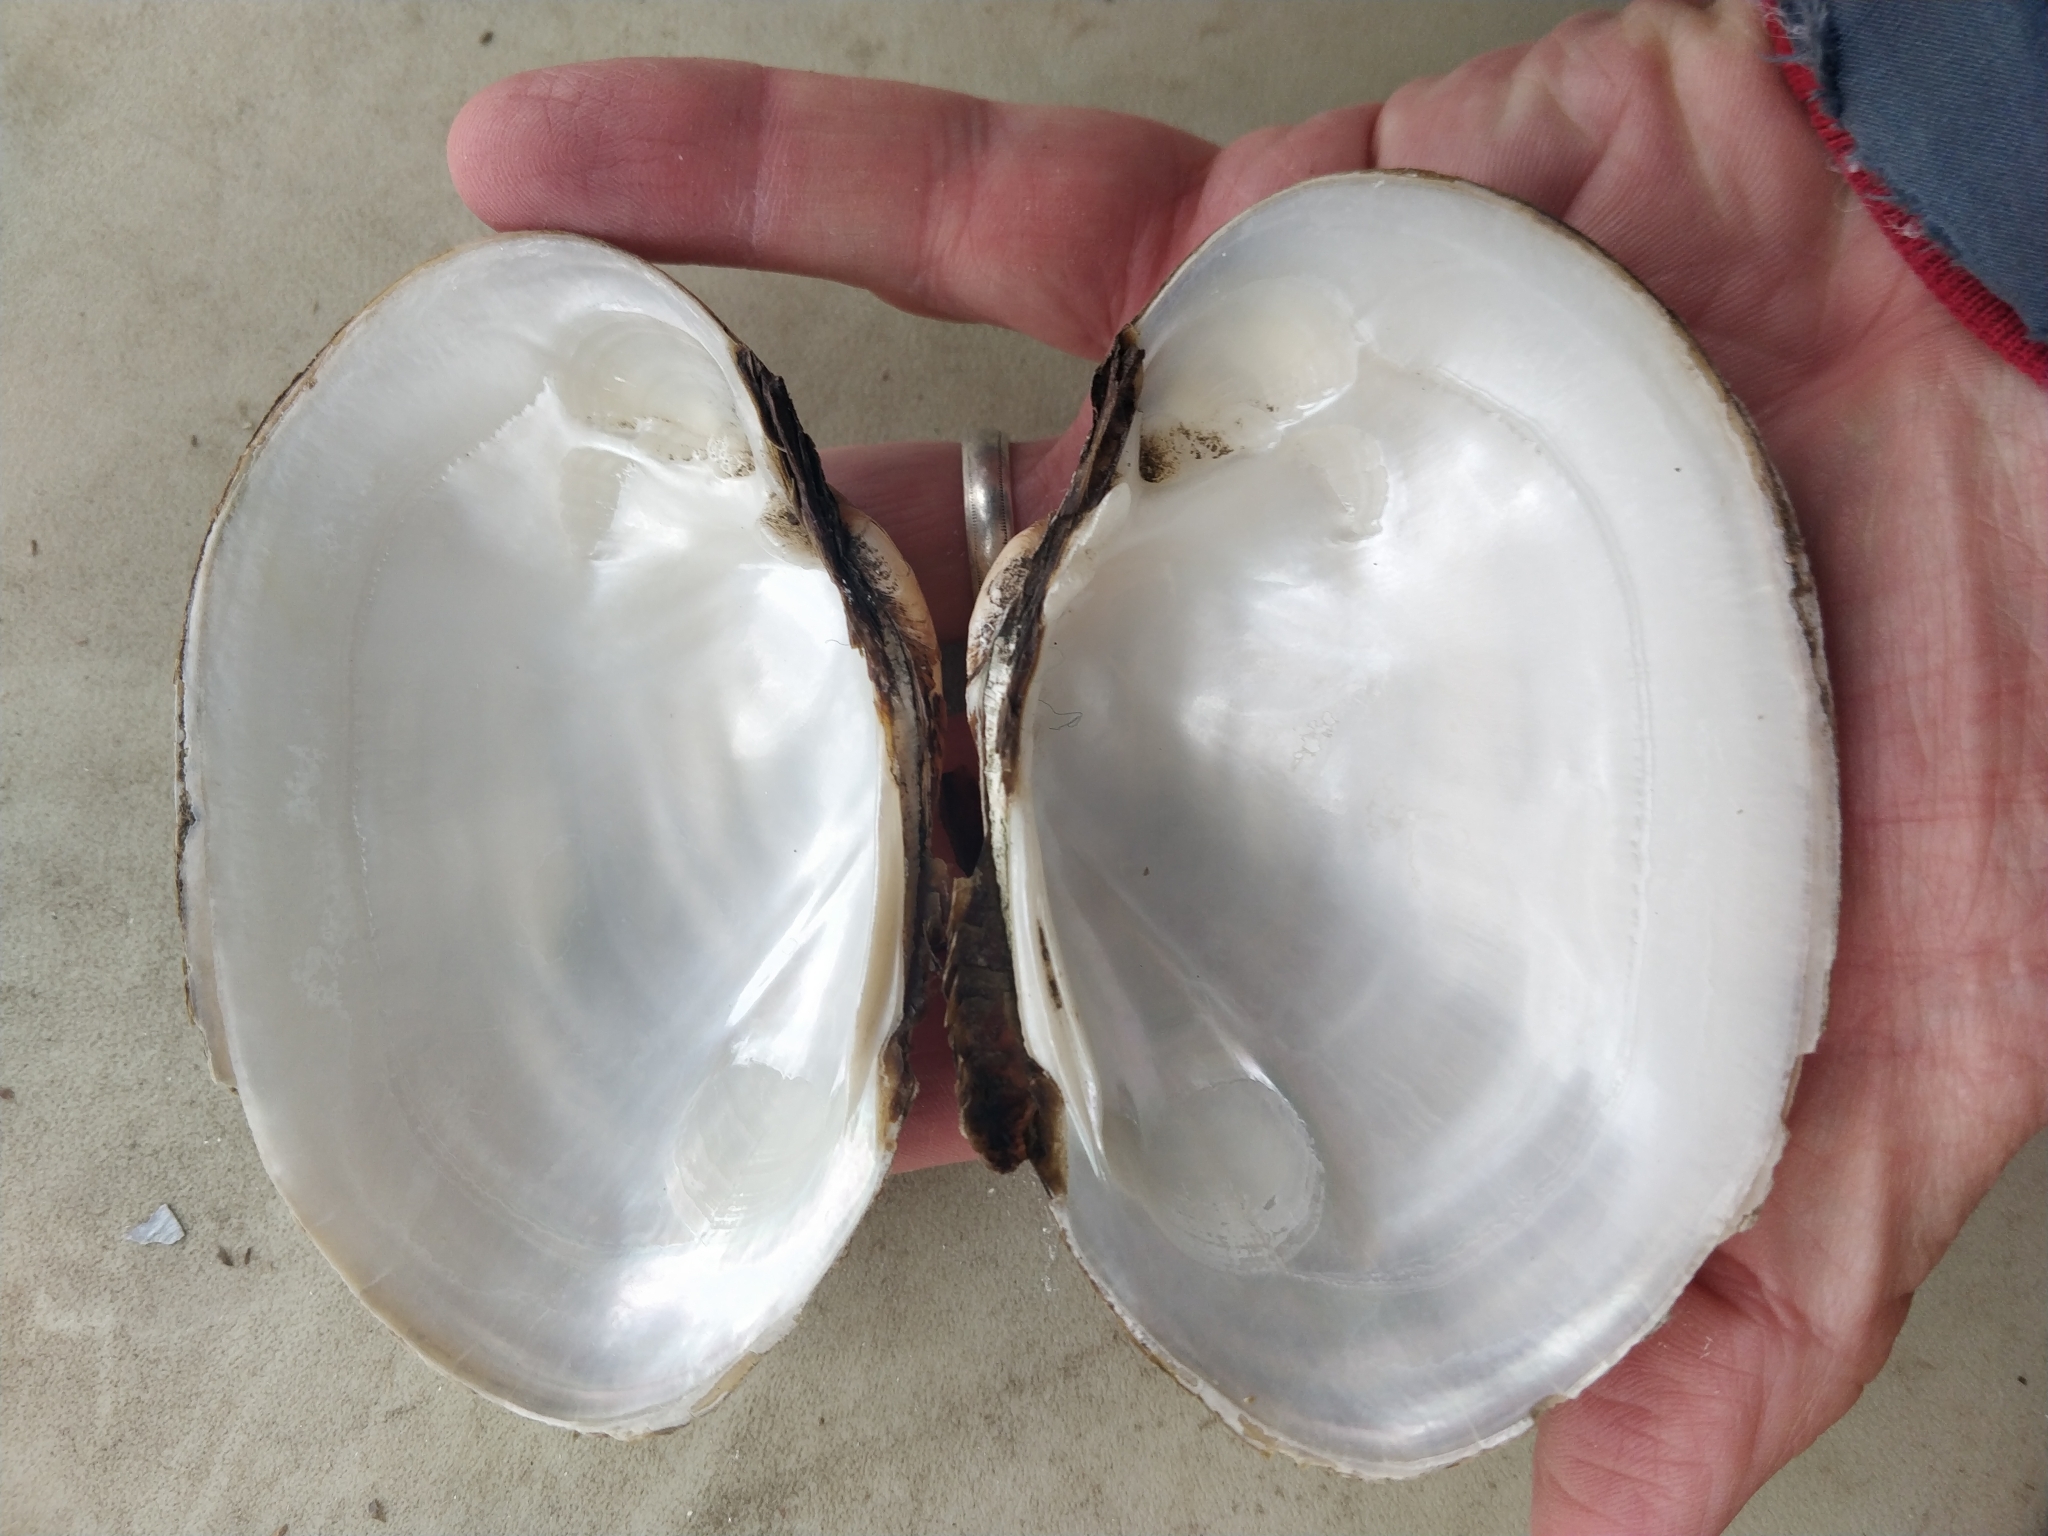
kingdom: Animalia
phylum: Mollusca
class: Bivalvia
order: Unionida
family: Unionidae
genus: Lampsilis
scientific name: Lampsilis cardium
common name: Plain pocketbook
